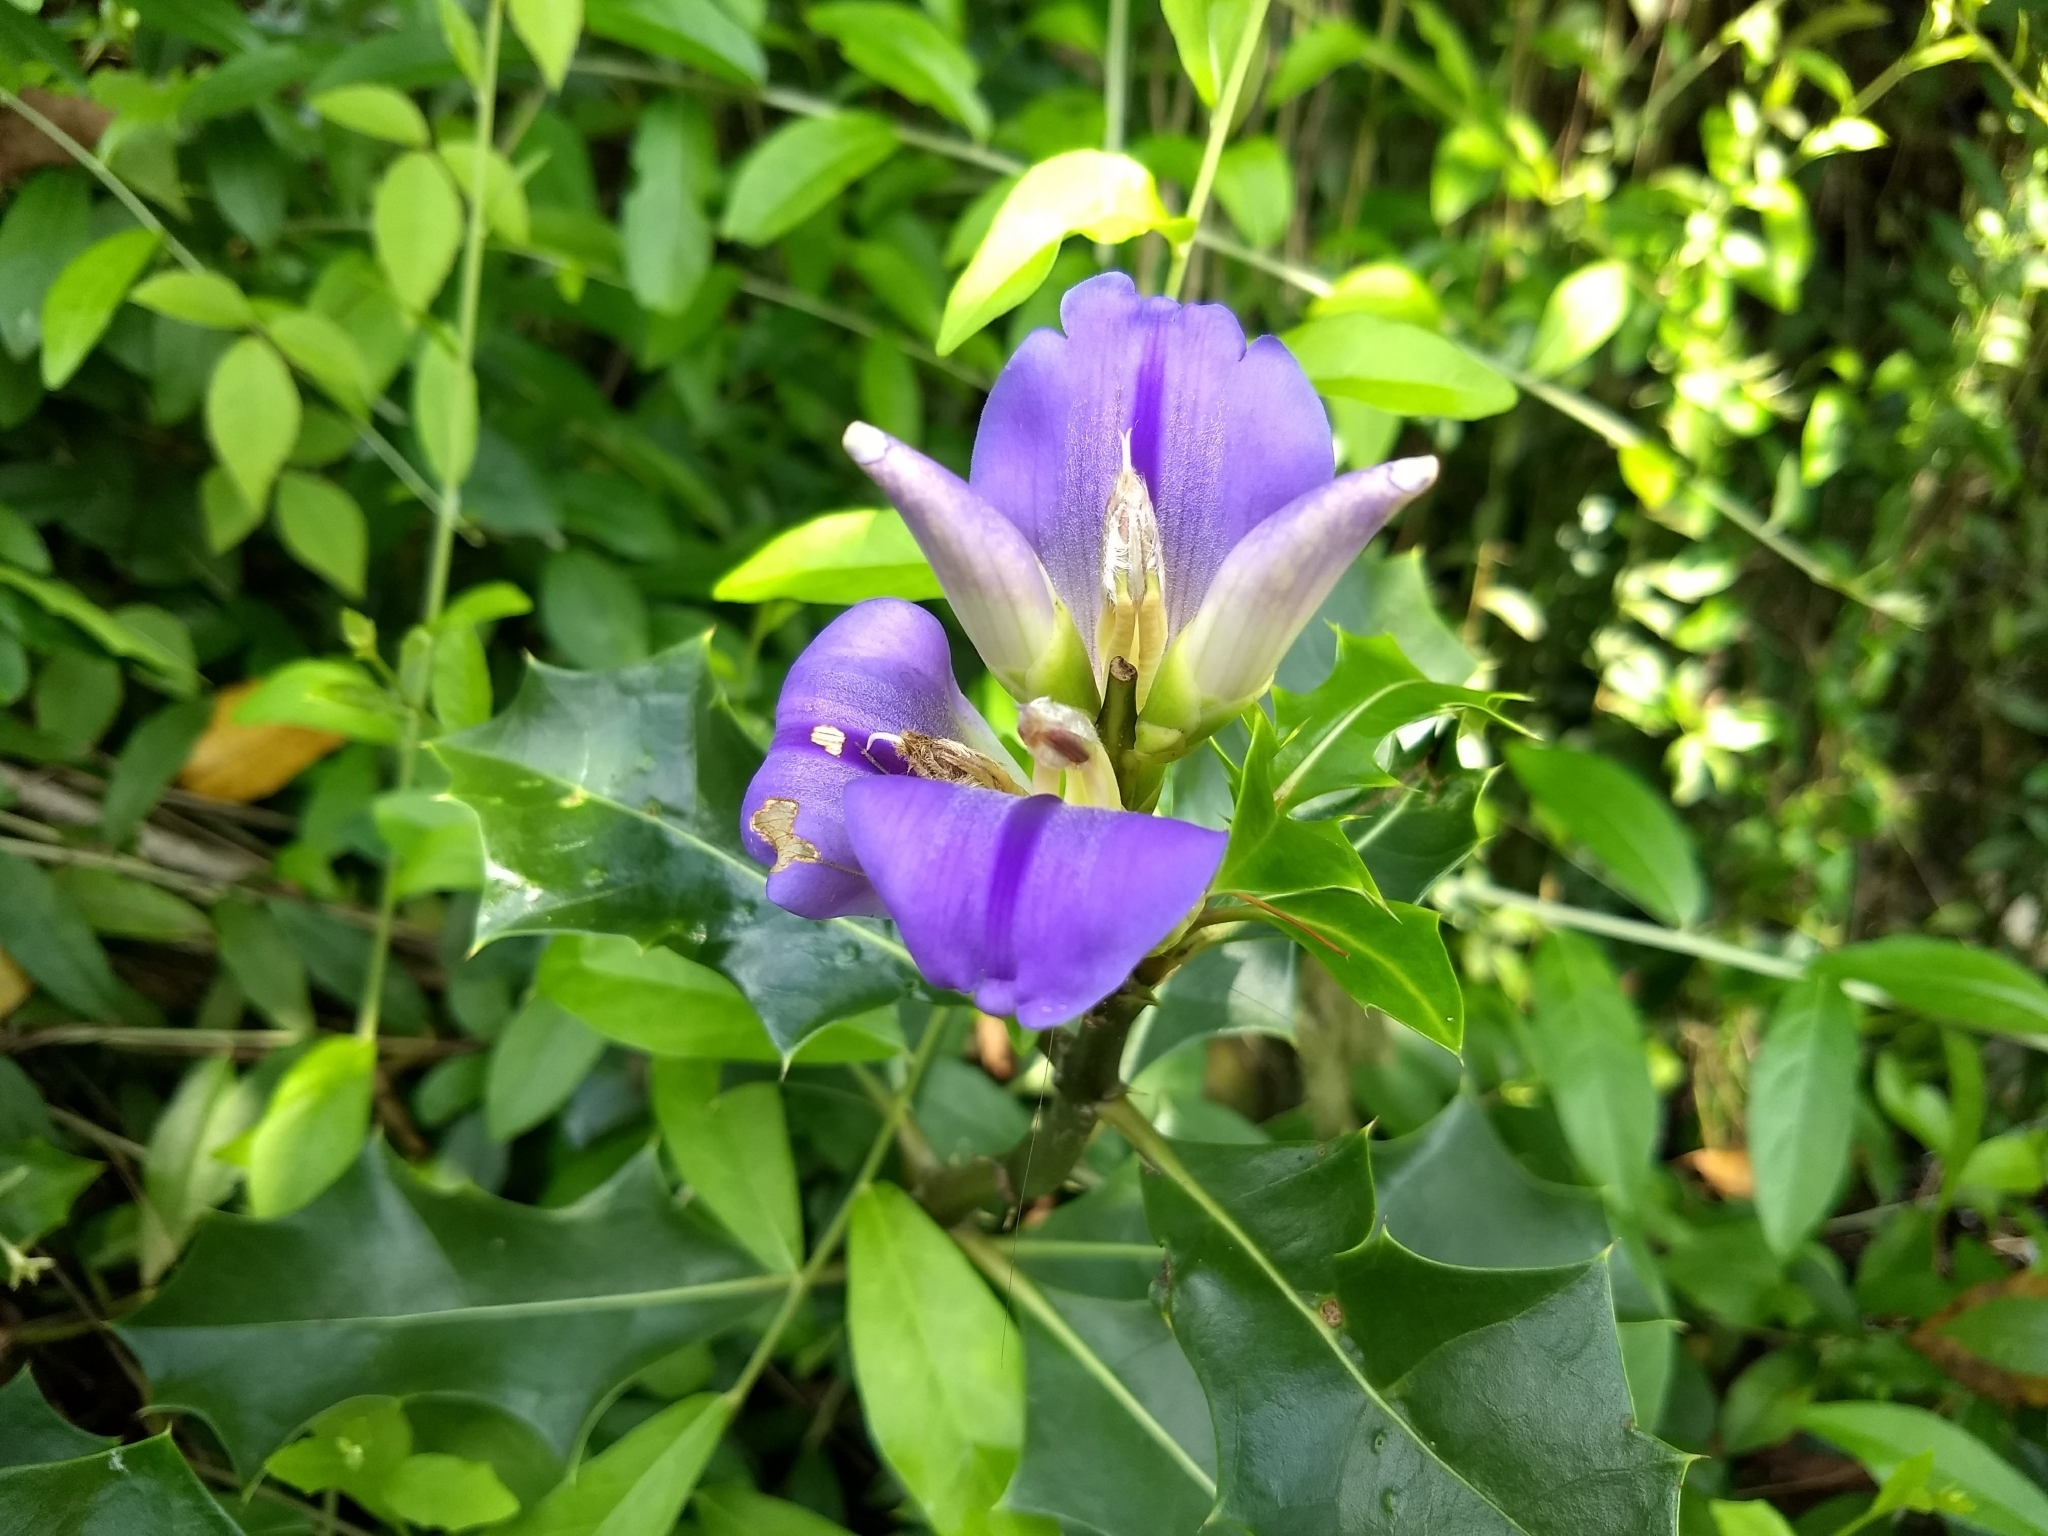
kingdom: Plantae
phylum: Tracheophyta
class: Magnoliopsida
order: Lamiales
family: Acanthaceae
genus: Acanthus
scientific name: Acanthus ilicifolius
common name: Holy mangrove
